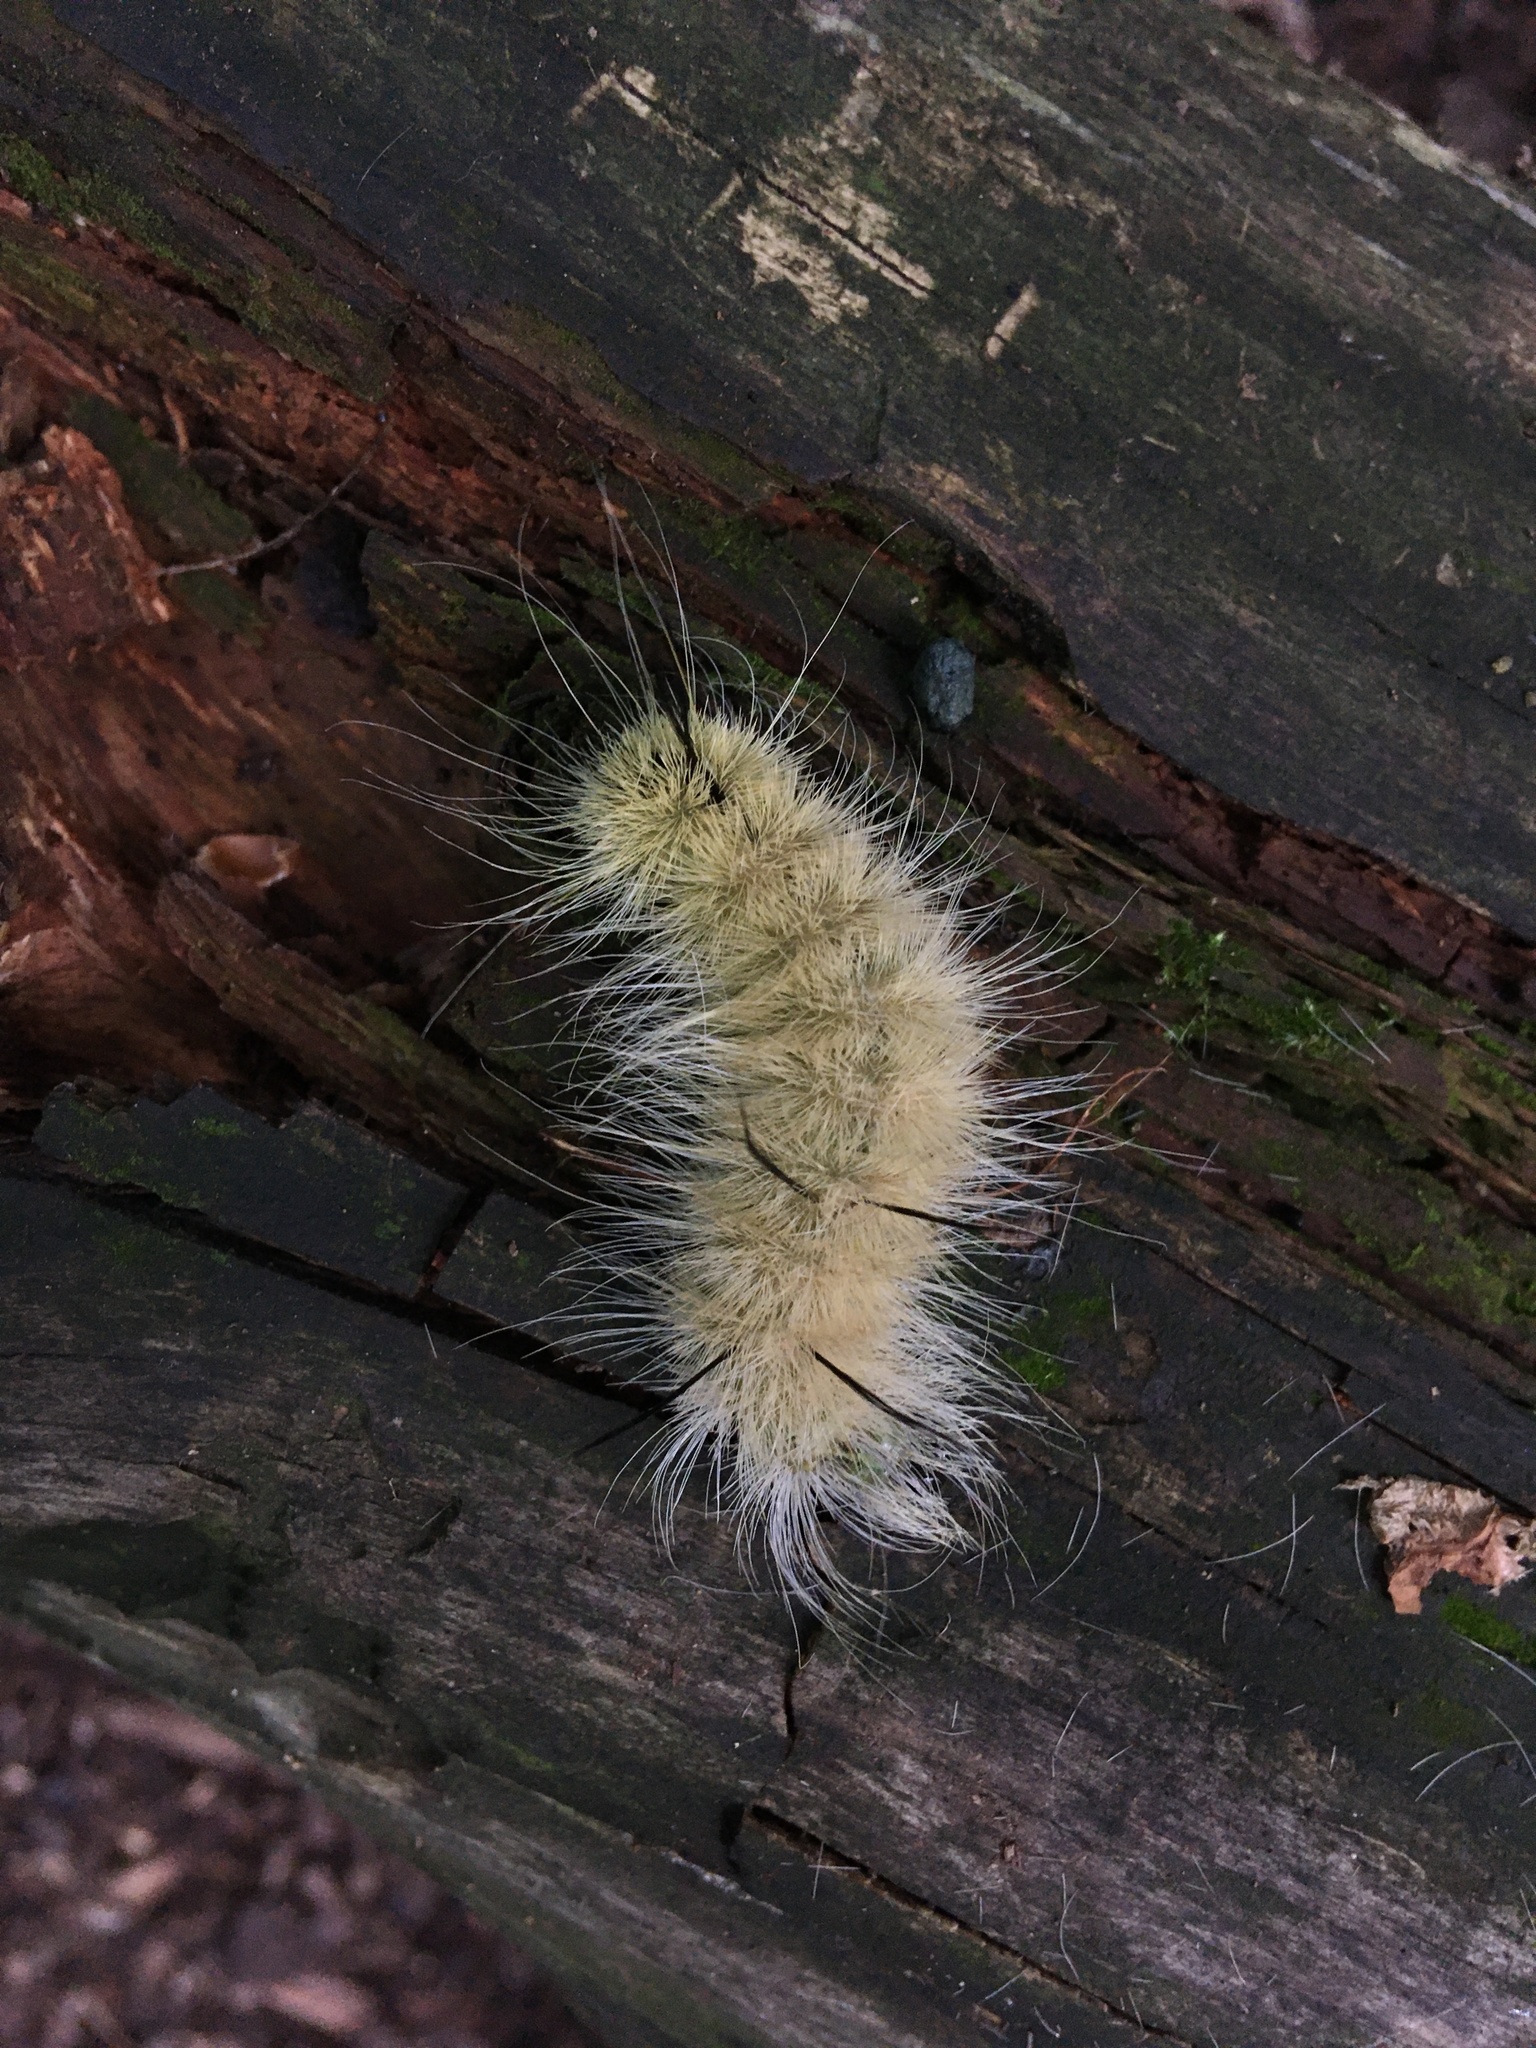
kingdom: Animalia
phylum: Arthropoda
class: Insecta
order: Lepidoptera
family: Noctuidae
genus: Acronicta
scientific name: Acronicta americana
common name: American dagger
